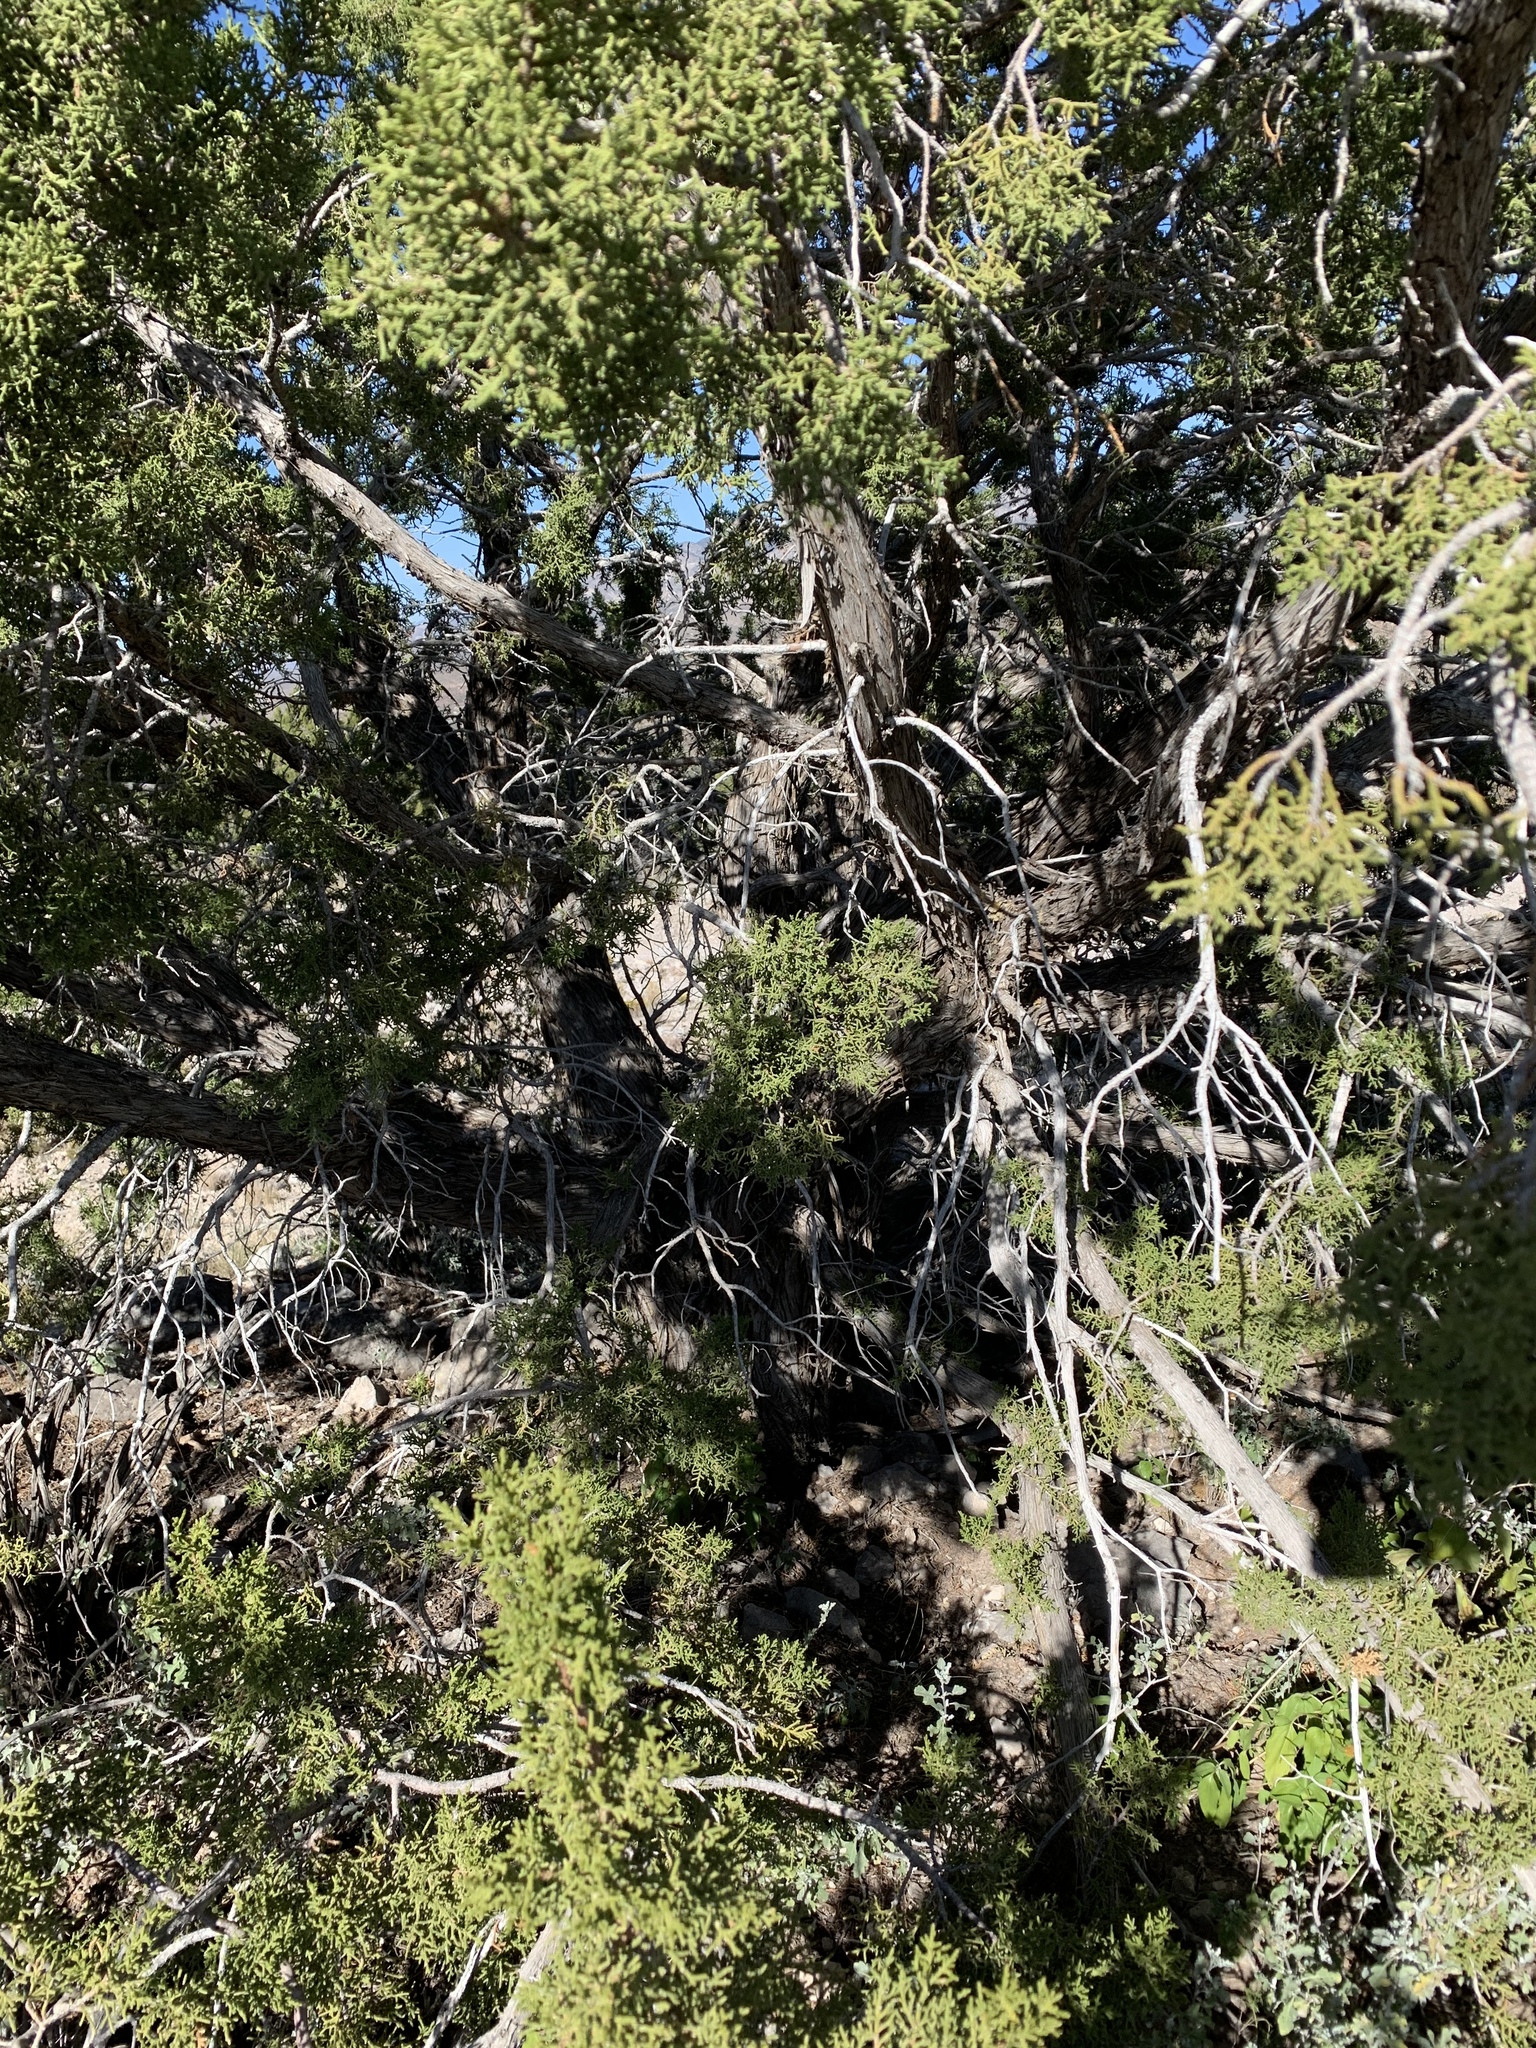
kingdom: Plantae
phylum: Tracheophyta
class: Pinopsida
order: Pinales
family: Cupressaceae
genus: Juniperus
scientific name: Juniperus monosperma
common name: One-seed juniper
